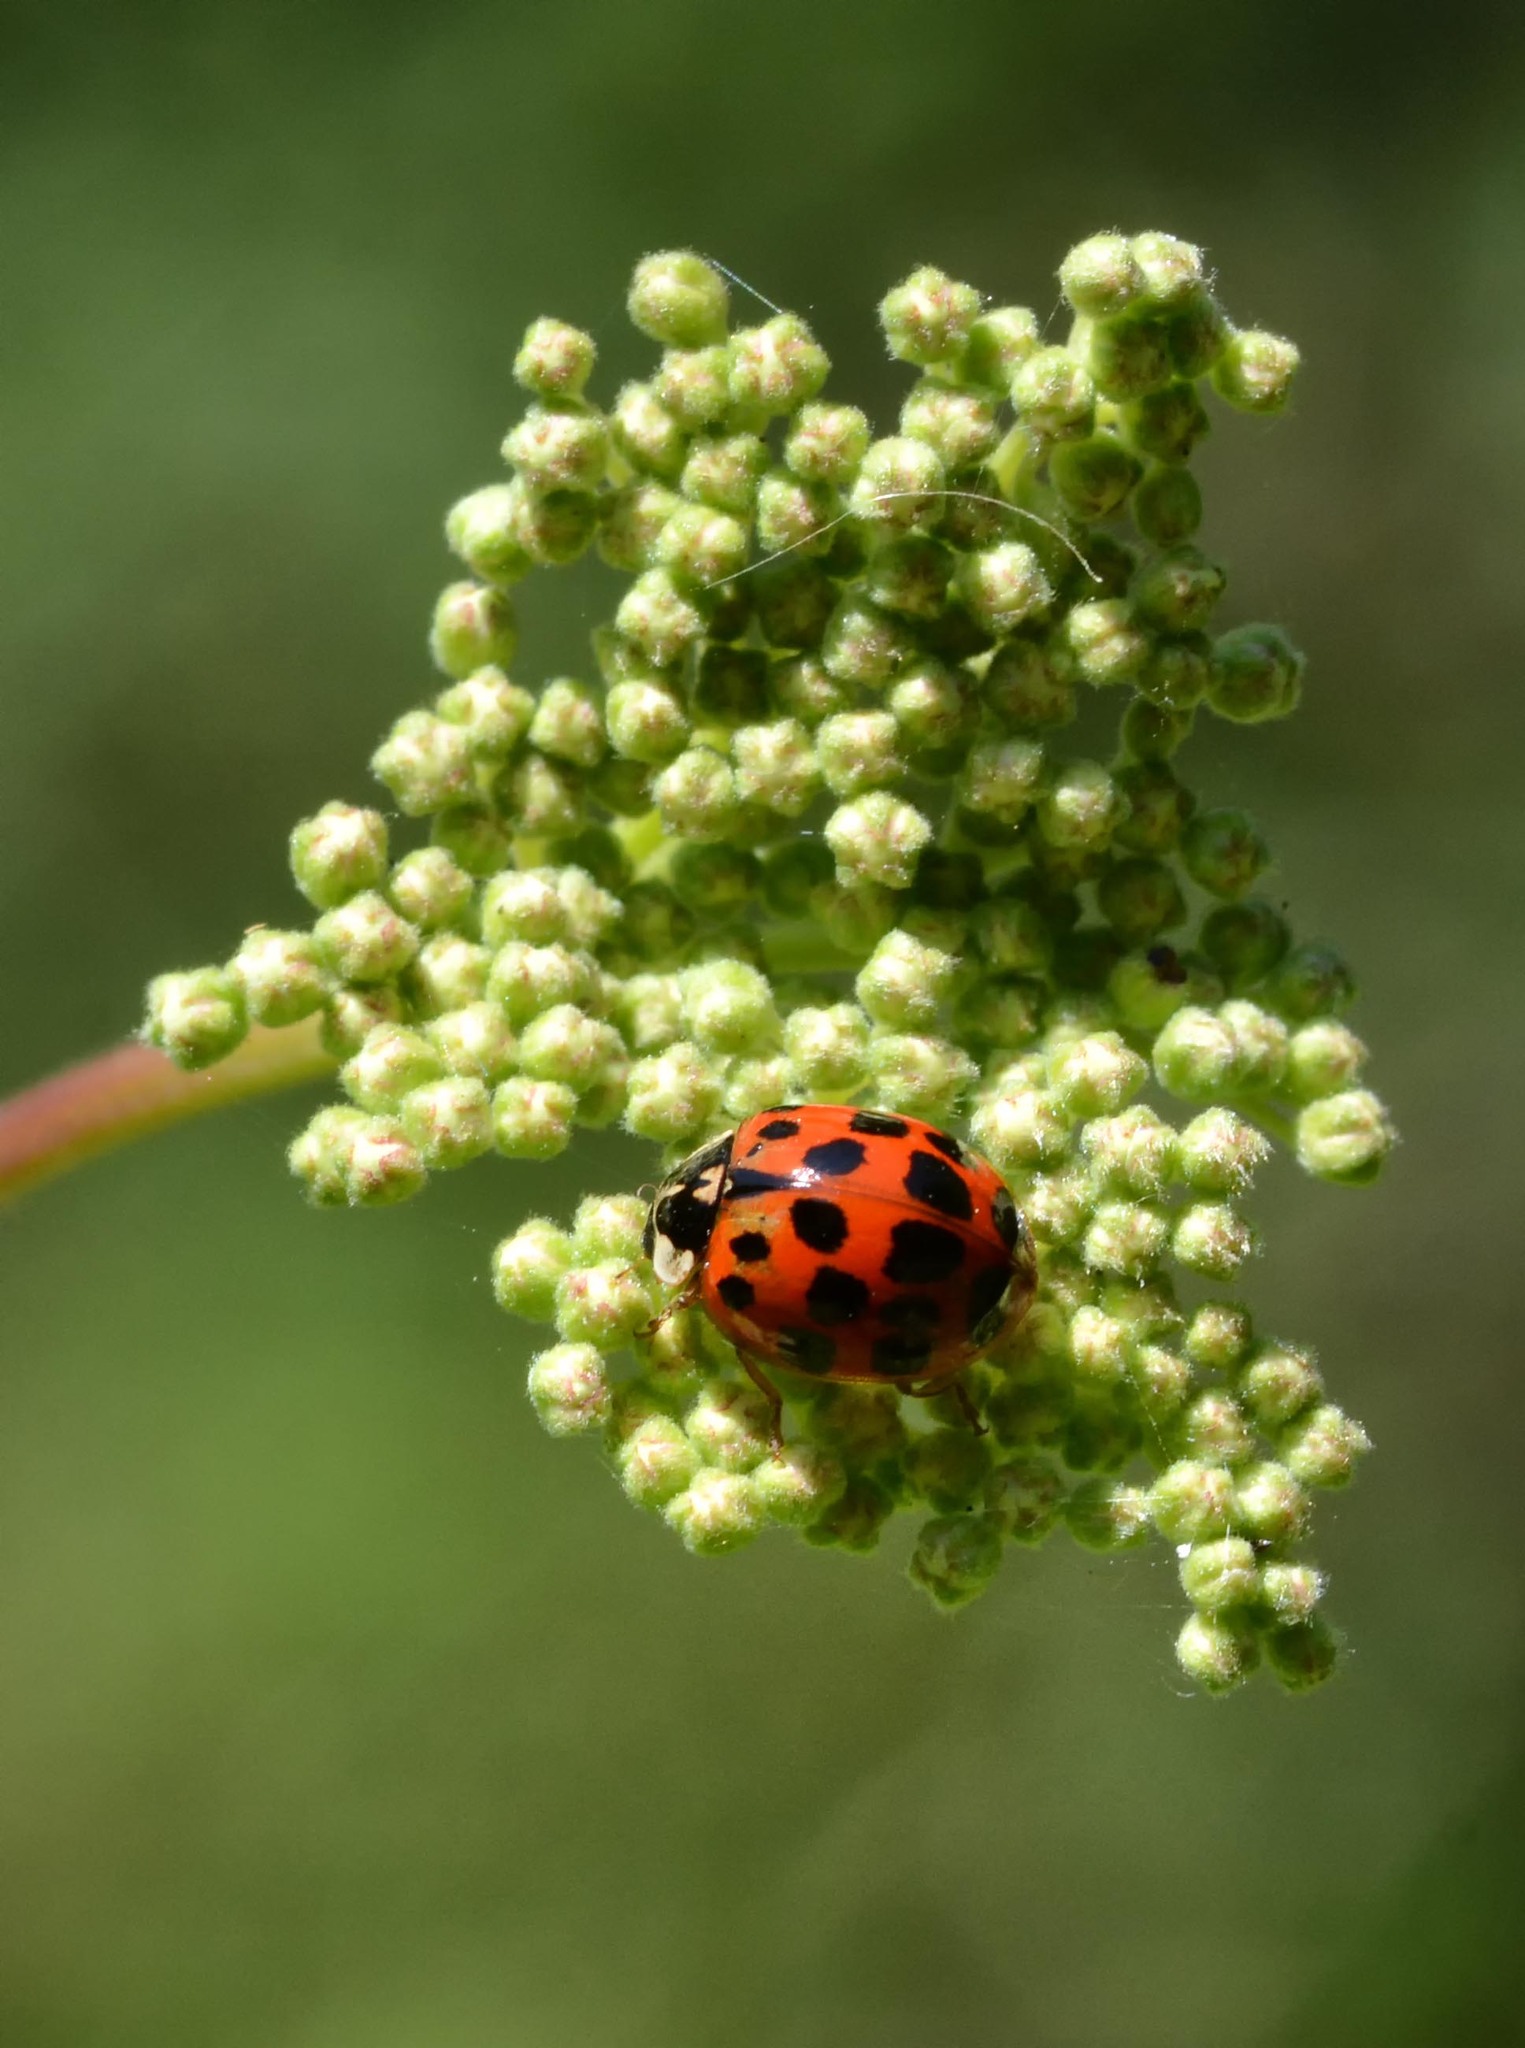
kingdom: Animalia
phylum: Arthropoda
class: Insecta
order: Coleoptera
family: Coccinellidae
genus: Harmonia
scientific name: Harmonia axyridis
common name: Harlequin ladybird
